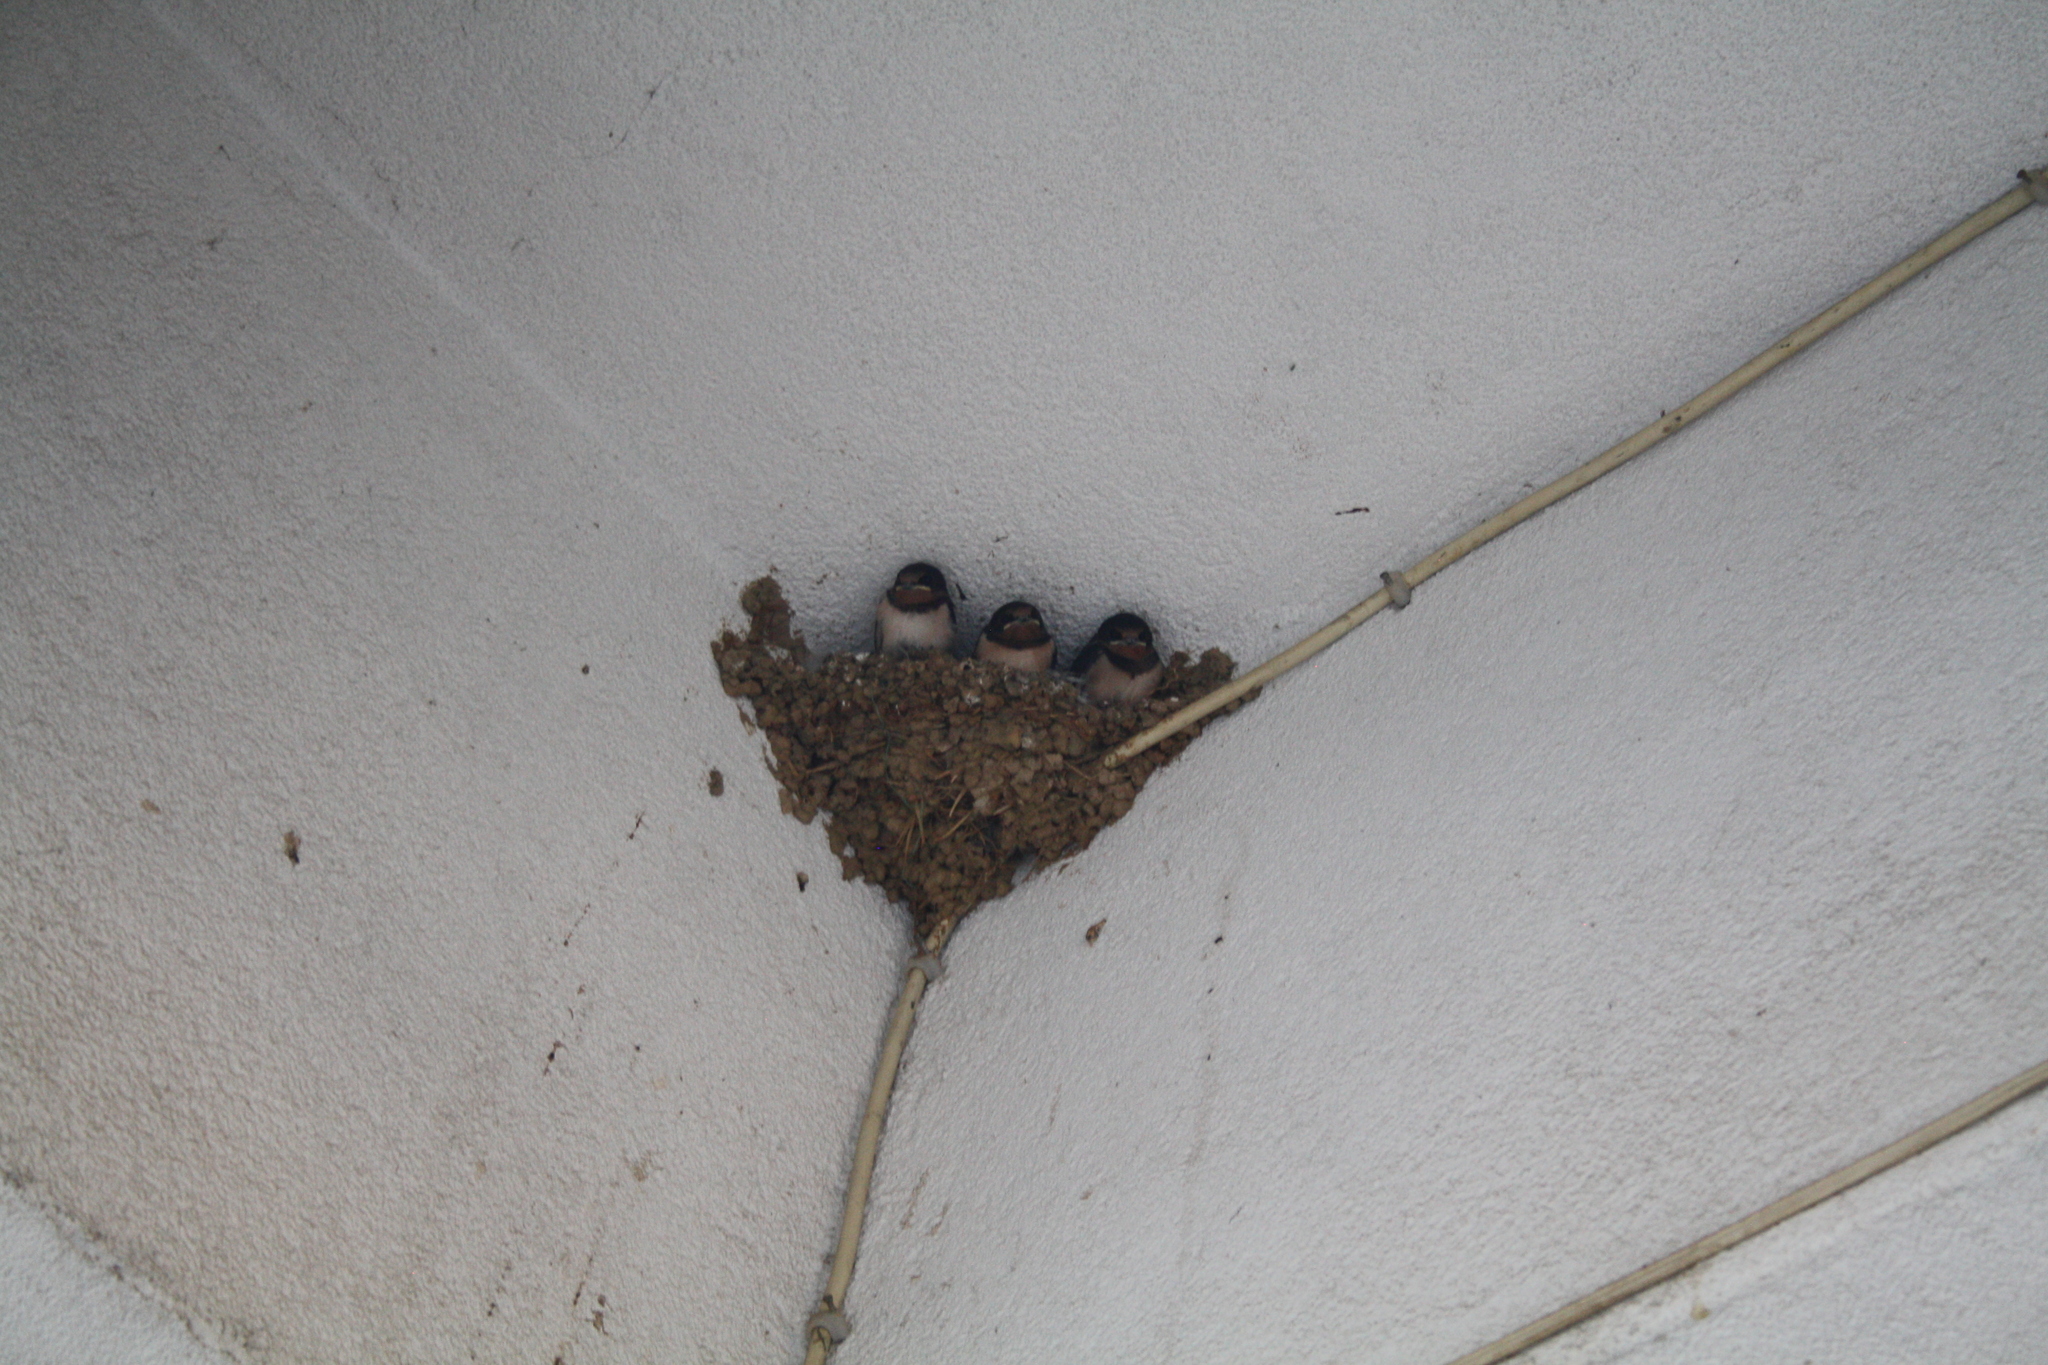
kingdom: Animalia
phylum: Chordata
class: Aves
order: Passeriformes
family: Hirundinidae
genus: Hirundo
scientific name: Hirundo rustica
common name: Barn swallow
